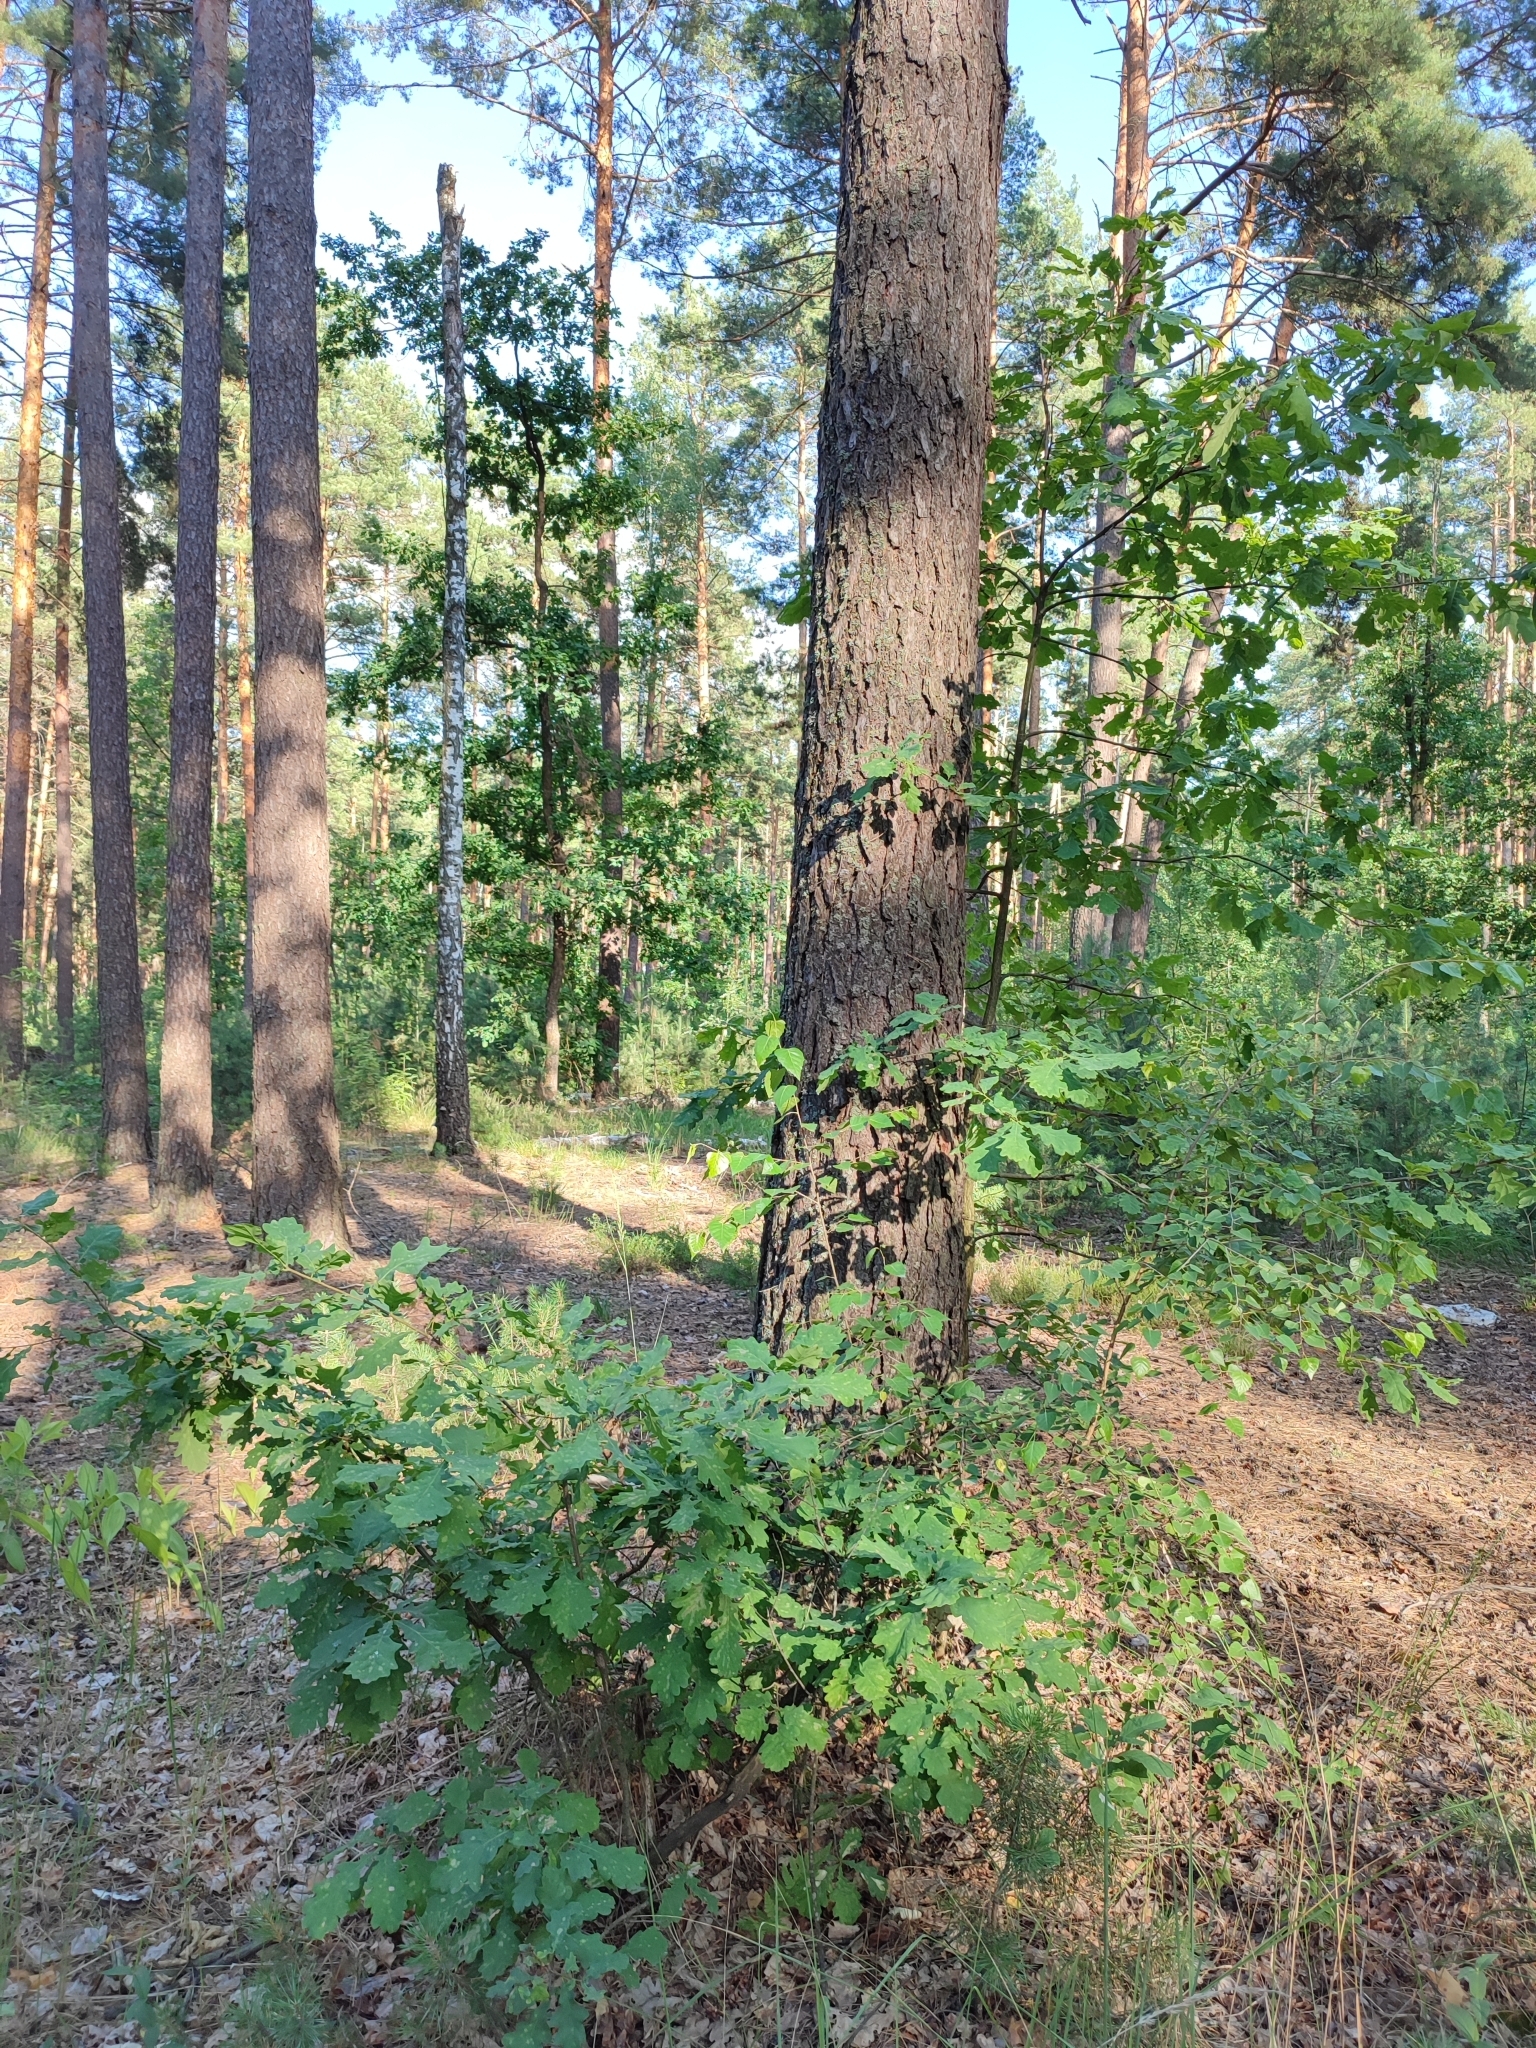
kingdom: Plantae
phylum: Tracheophyta
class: Magnoliopsida
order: Fagales
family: Fagaceae
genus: Quercus
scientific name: Quercus robur
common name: Pedunculate oak
